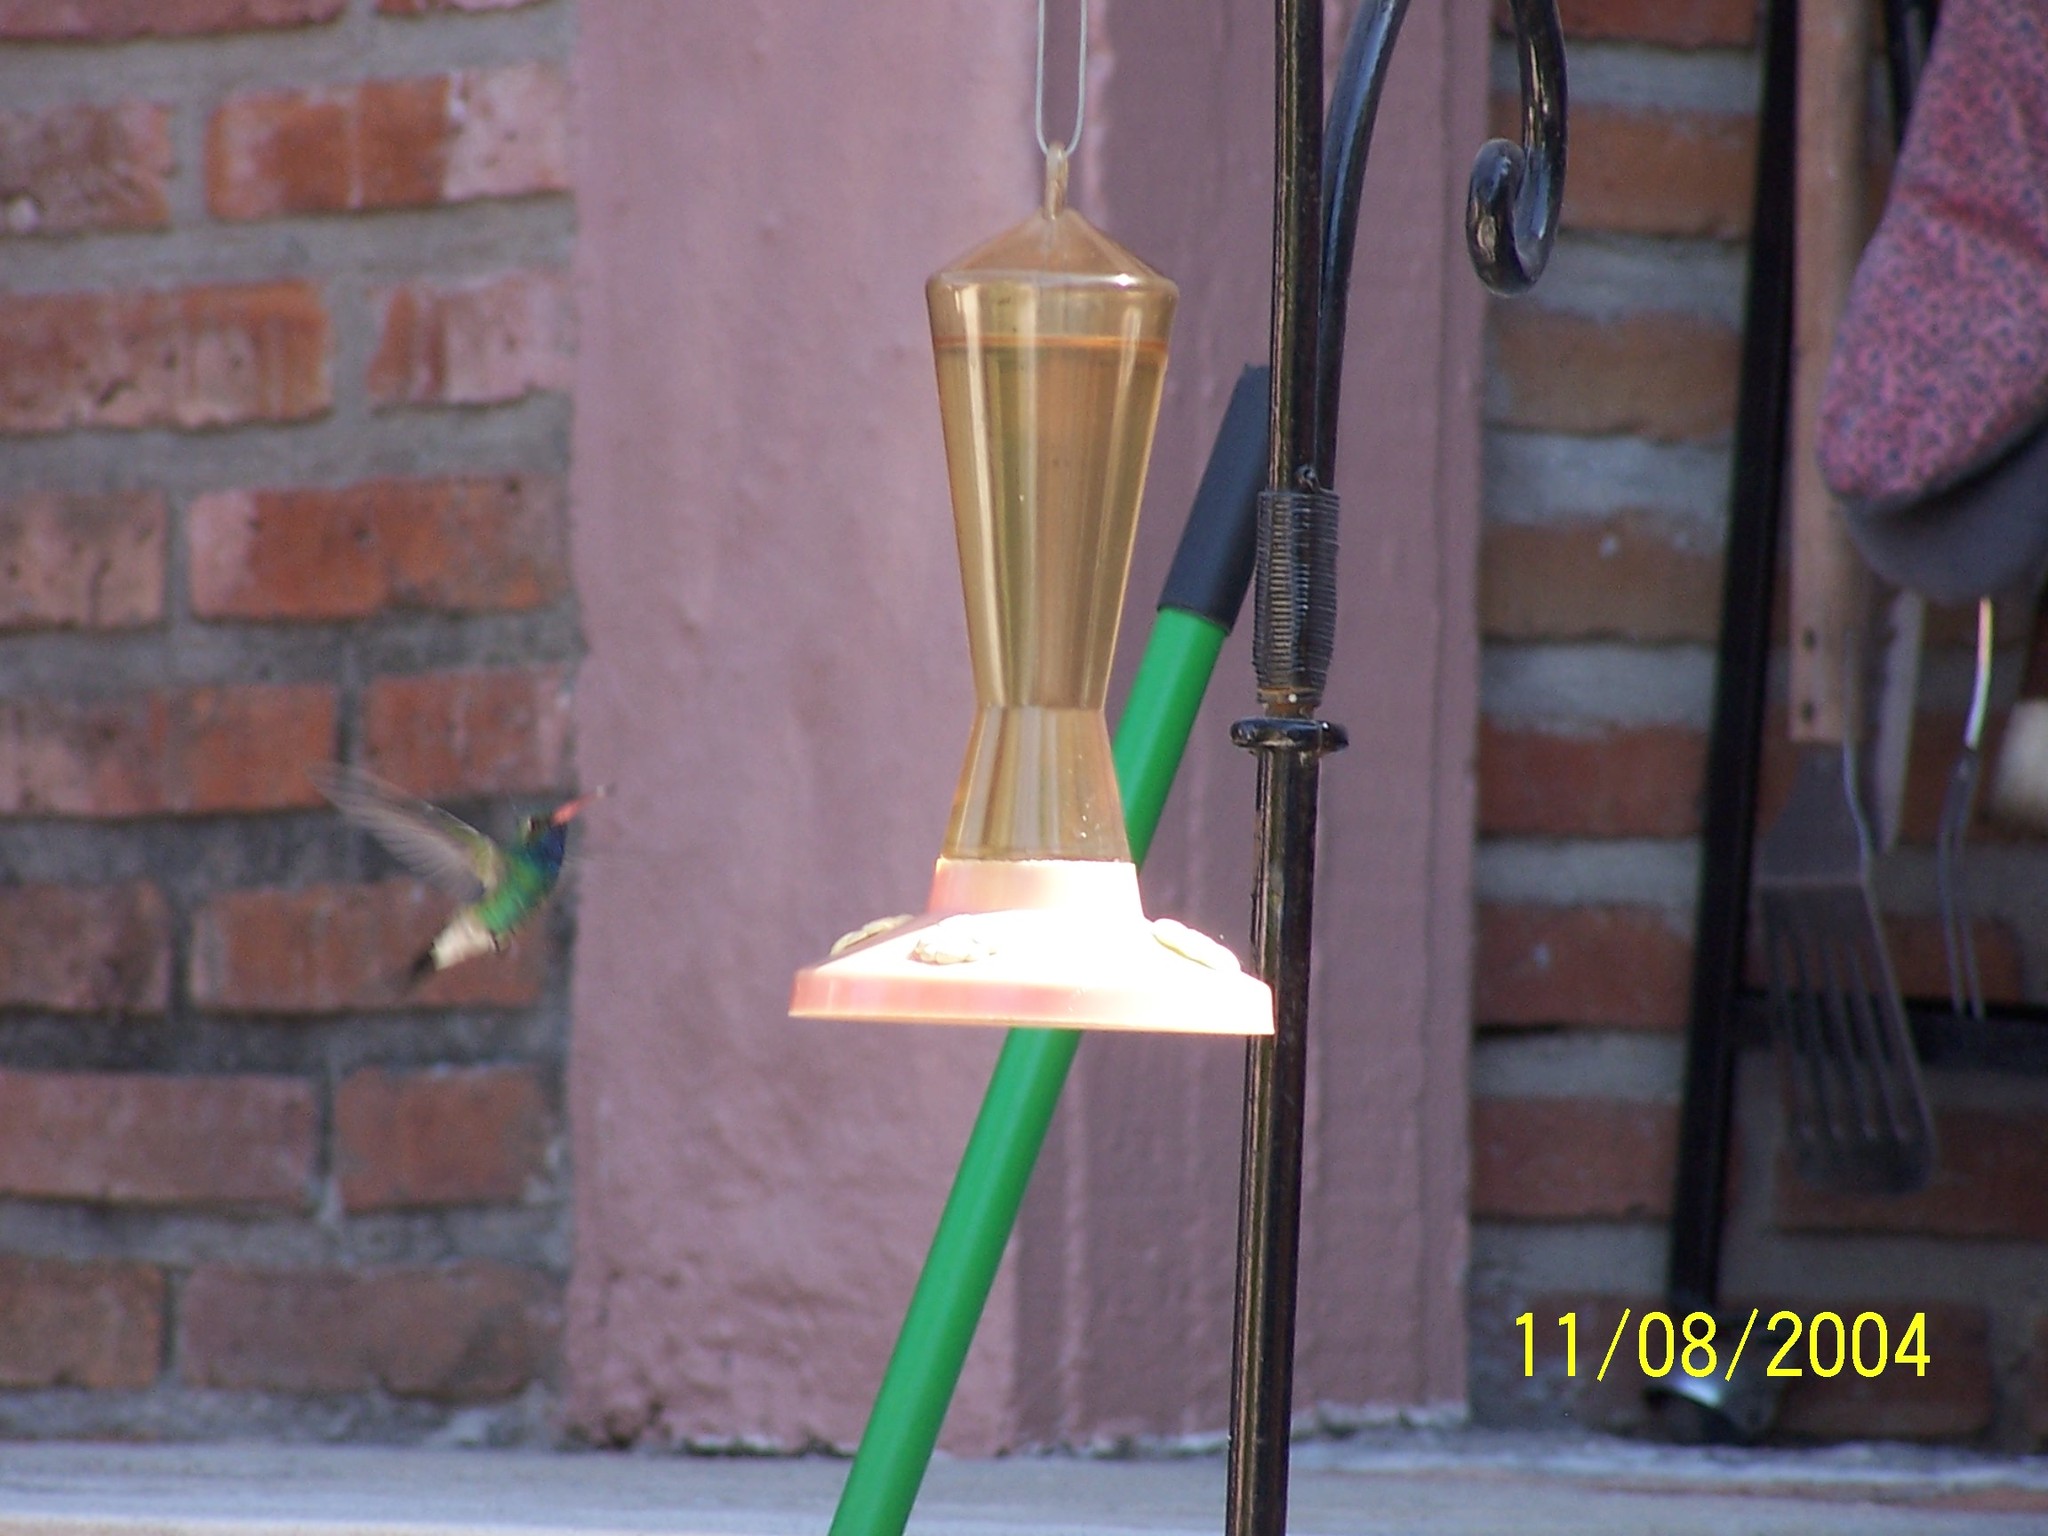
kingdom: Animalia
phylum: Chordata
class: Aves
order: Apodiformes
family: Trochilidae
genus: Cynanthus
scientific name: Cynanthus latirostris
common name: Broad-billed hummingbird
